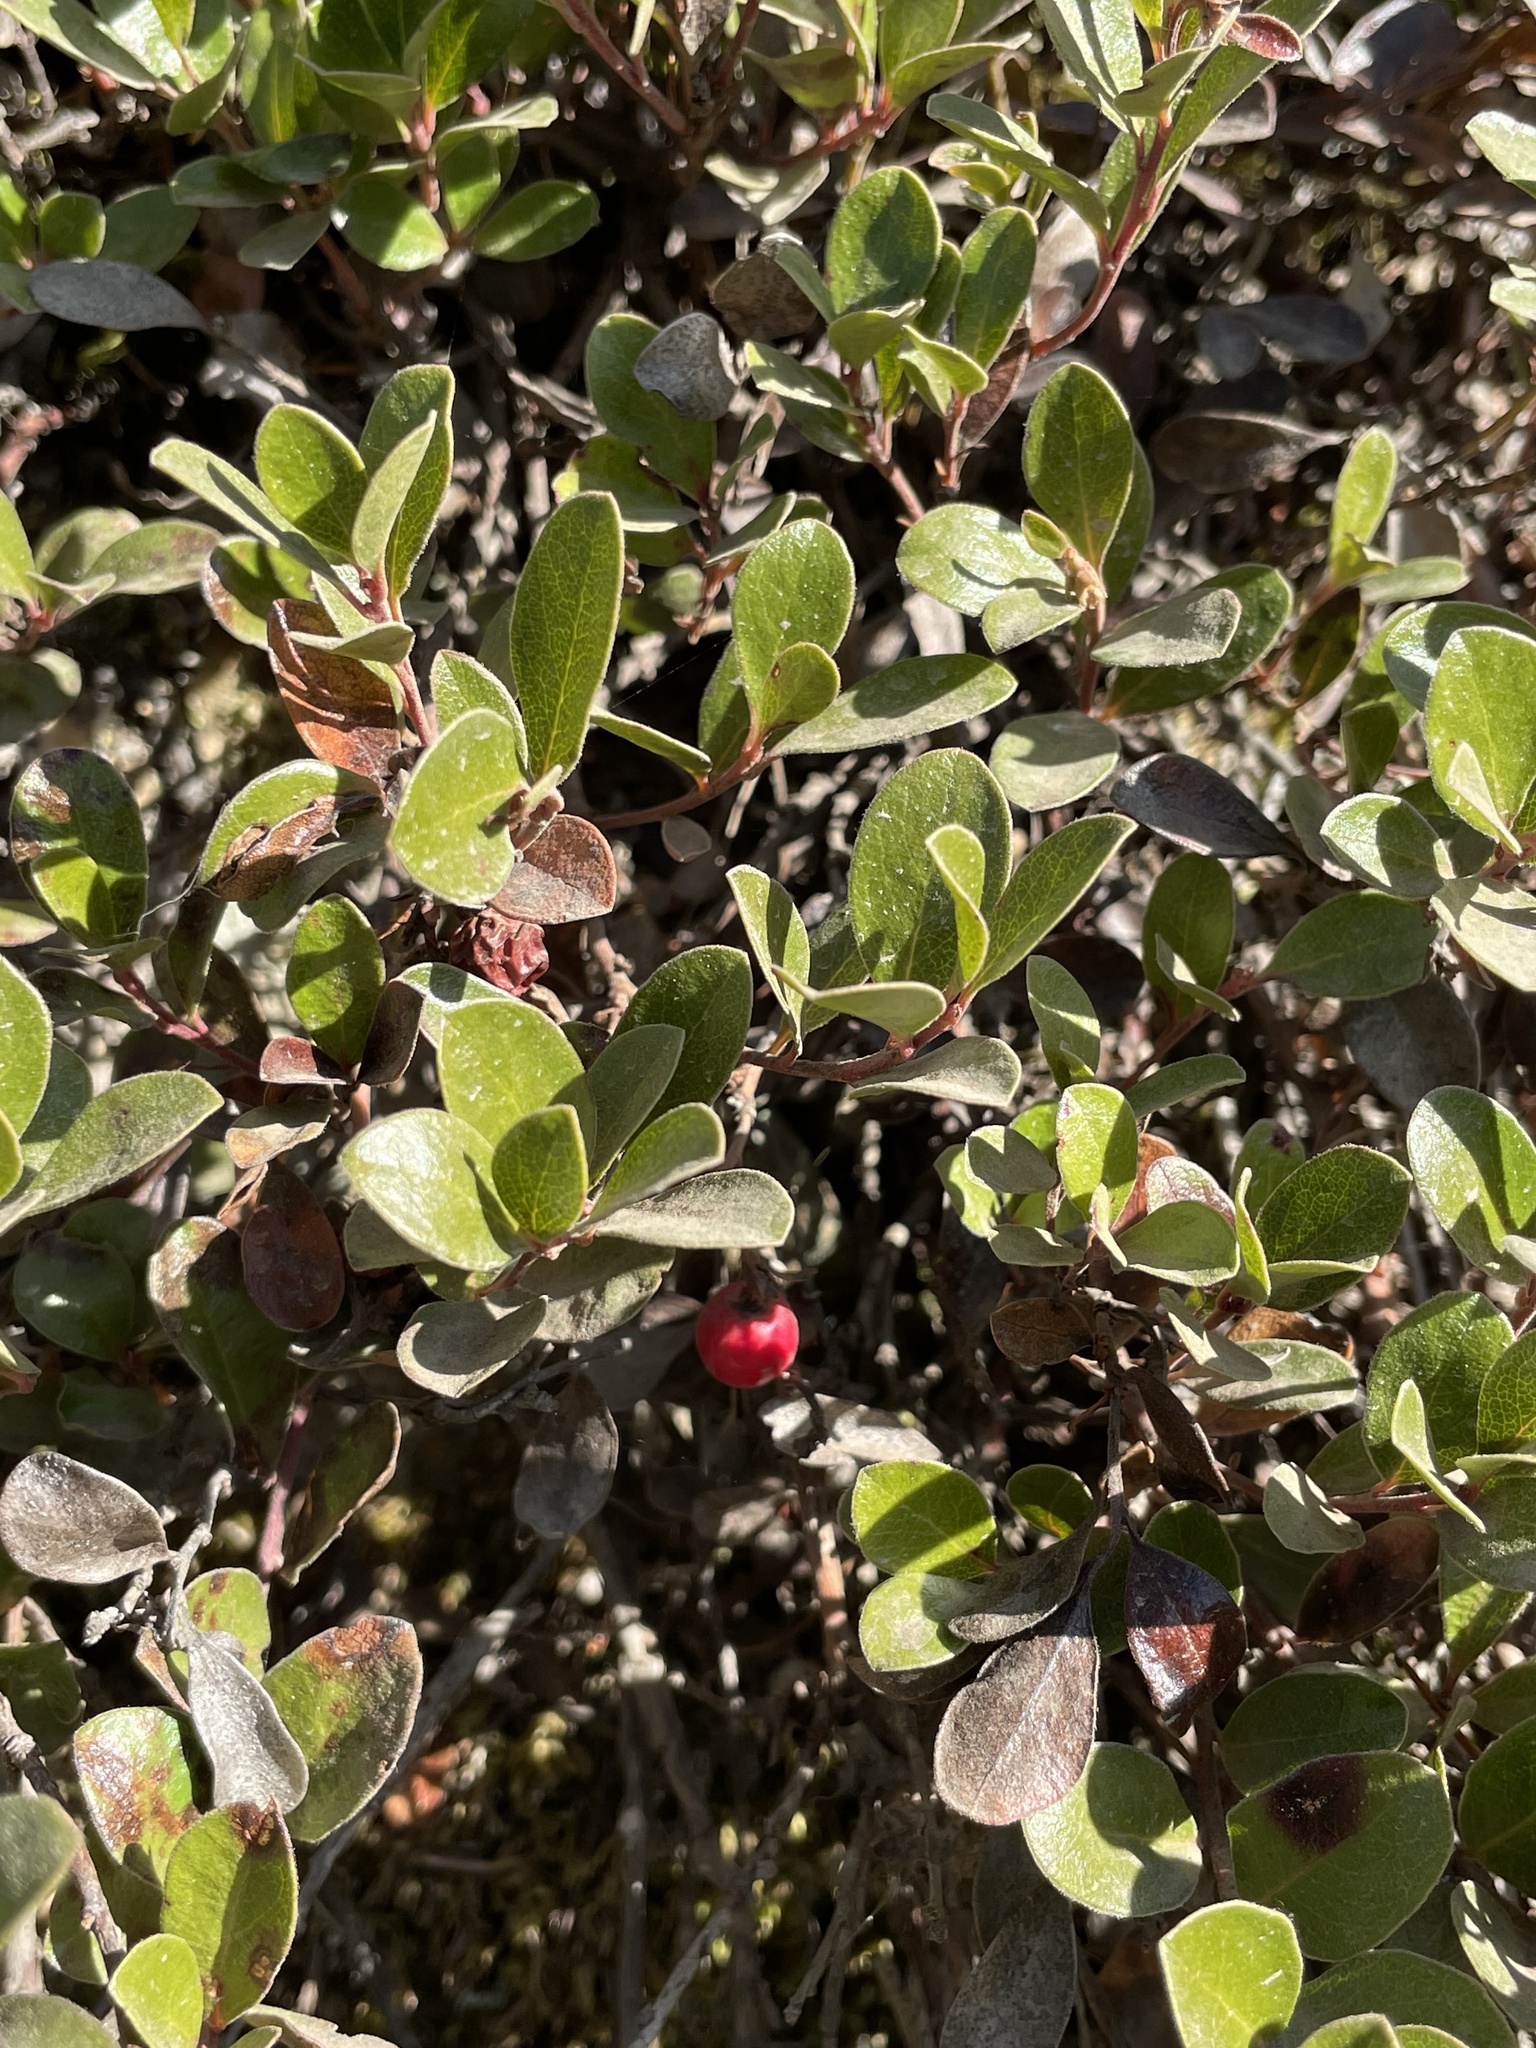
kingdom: Plantae
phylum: Tracheophyta
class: Magnoliopsida
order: Ericales
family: Ericaceae
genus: Arctostaphylos
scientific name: Arctostaphylos uva-ursi
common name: Bearberry
